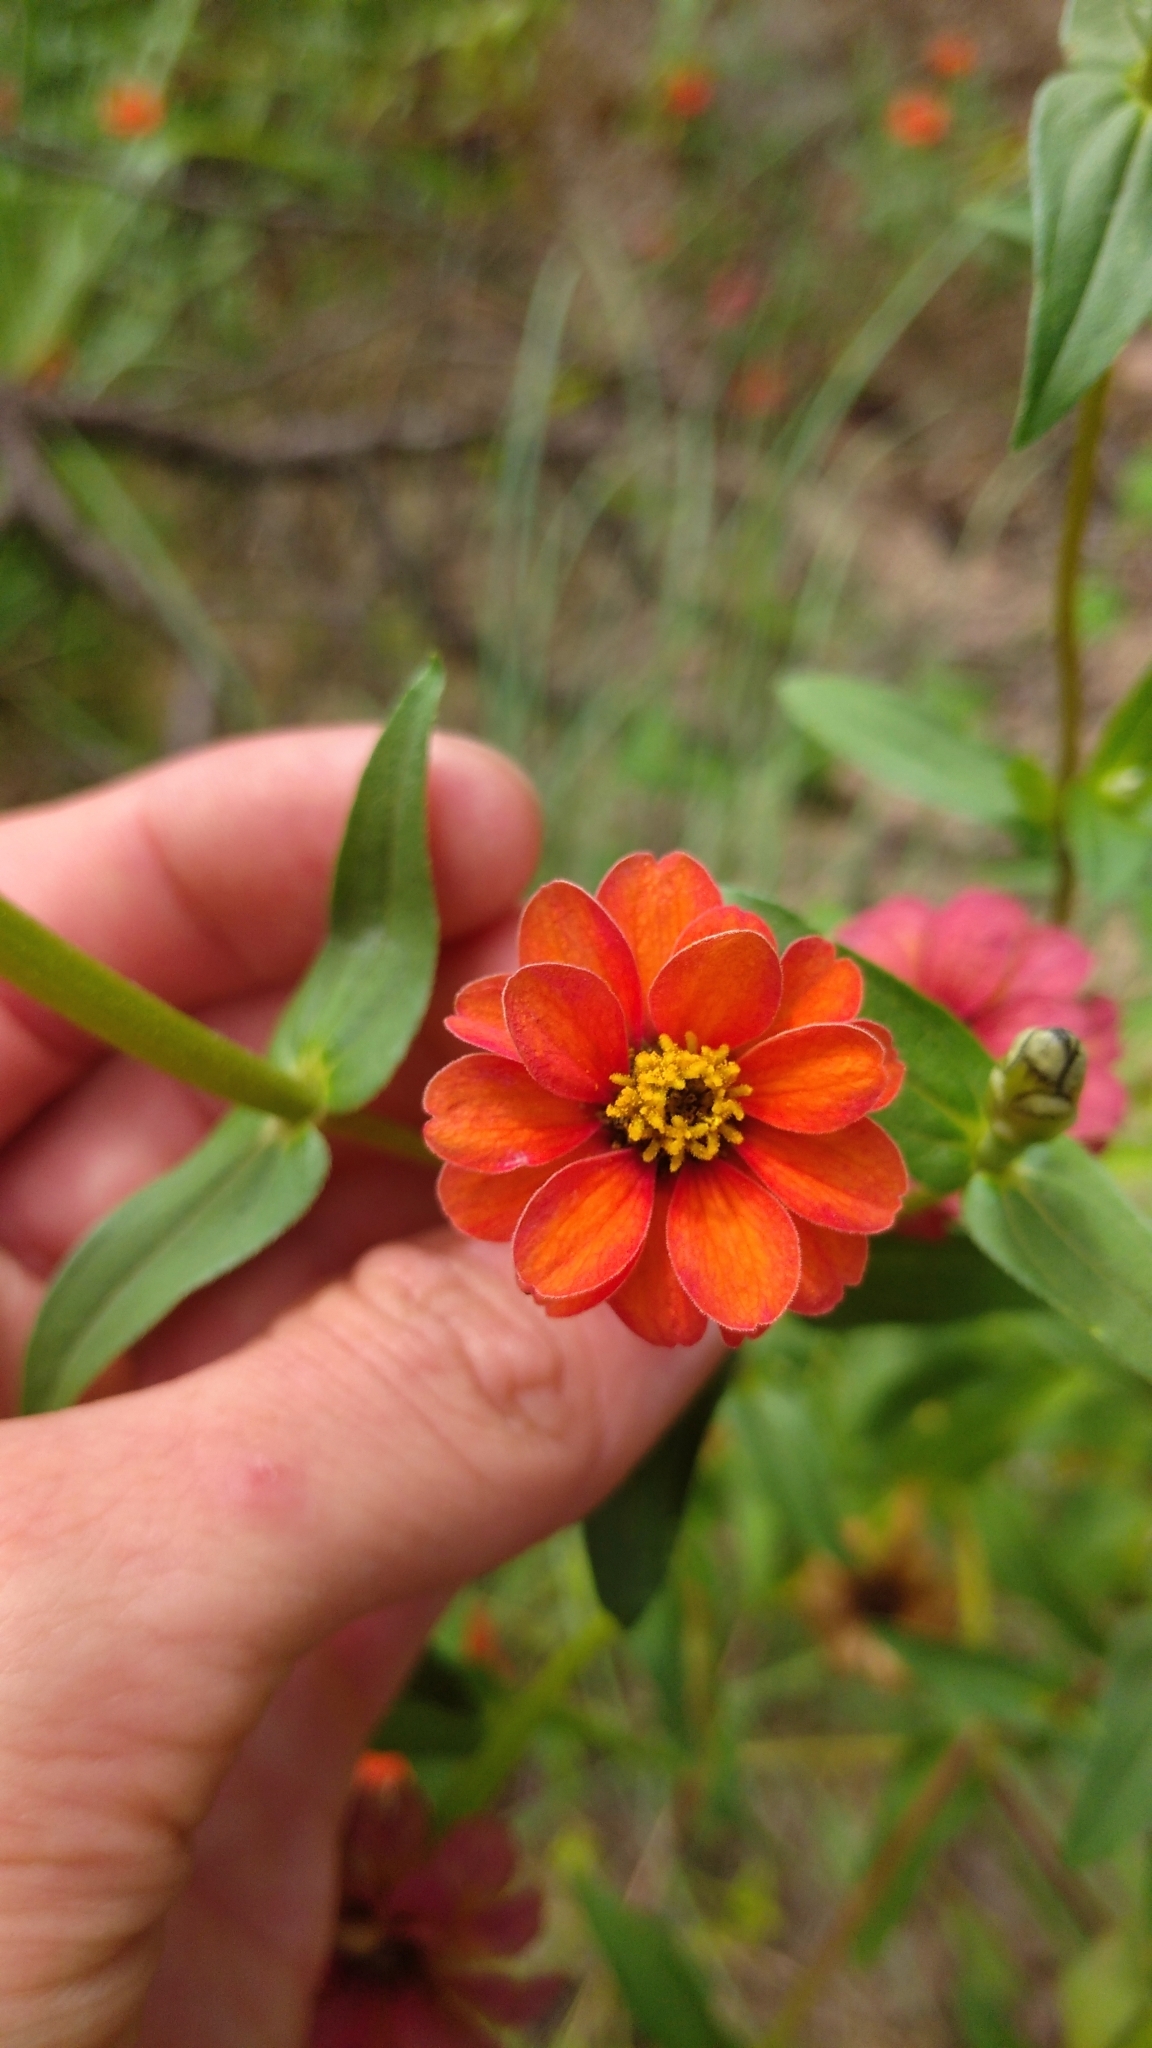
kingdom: Plantae
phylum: Tracheophyta
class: Magnoliopsida
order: Asterales
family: Asteraceae
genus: Zinnia
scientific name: Zinnia peruviana
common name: Peruvian zinnia
